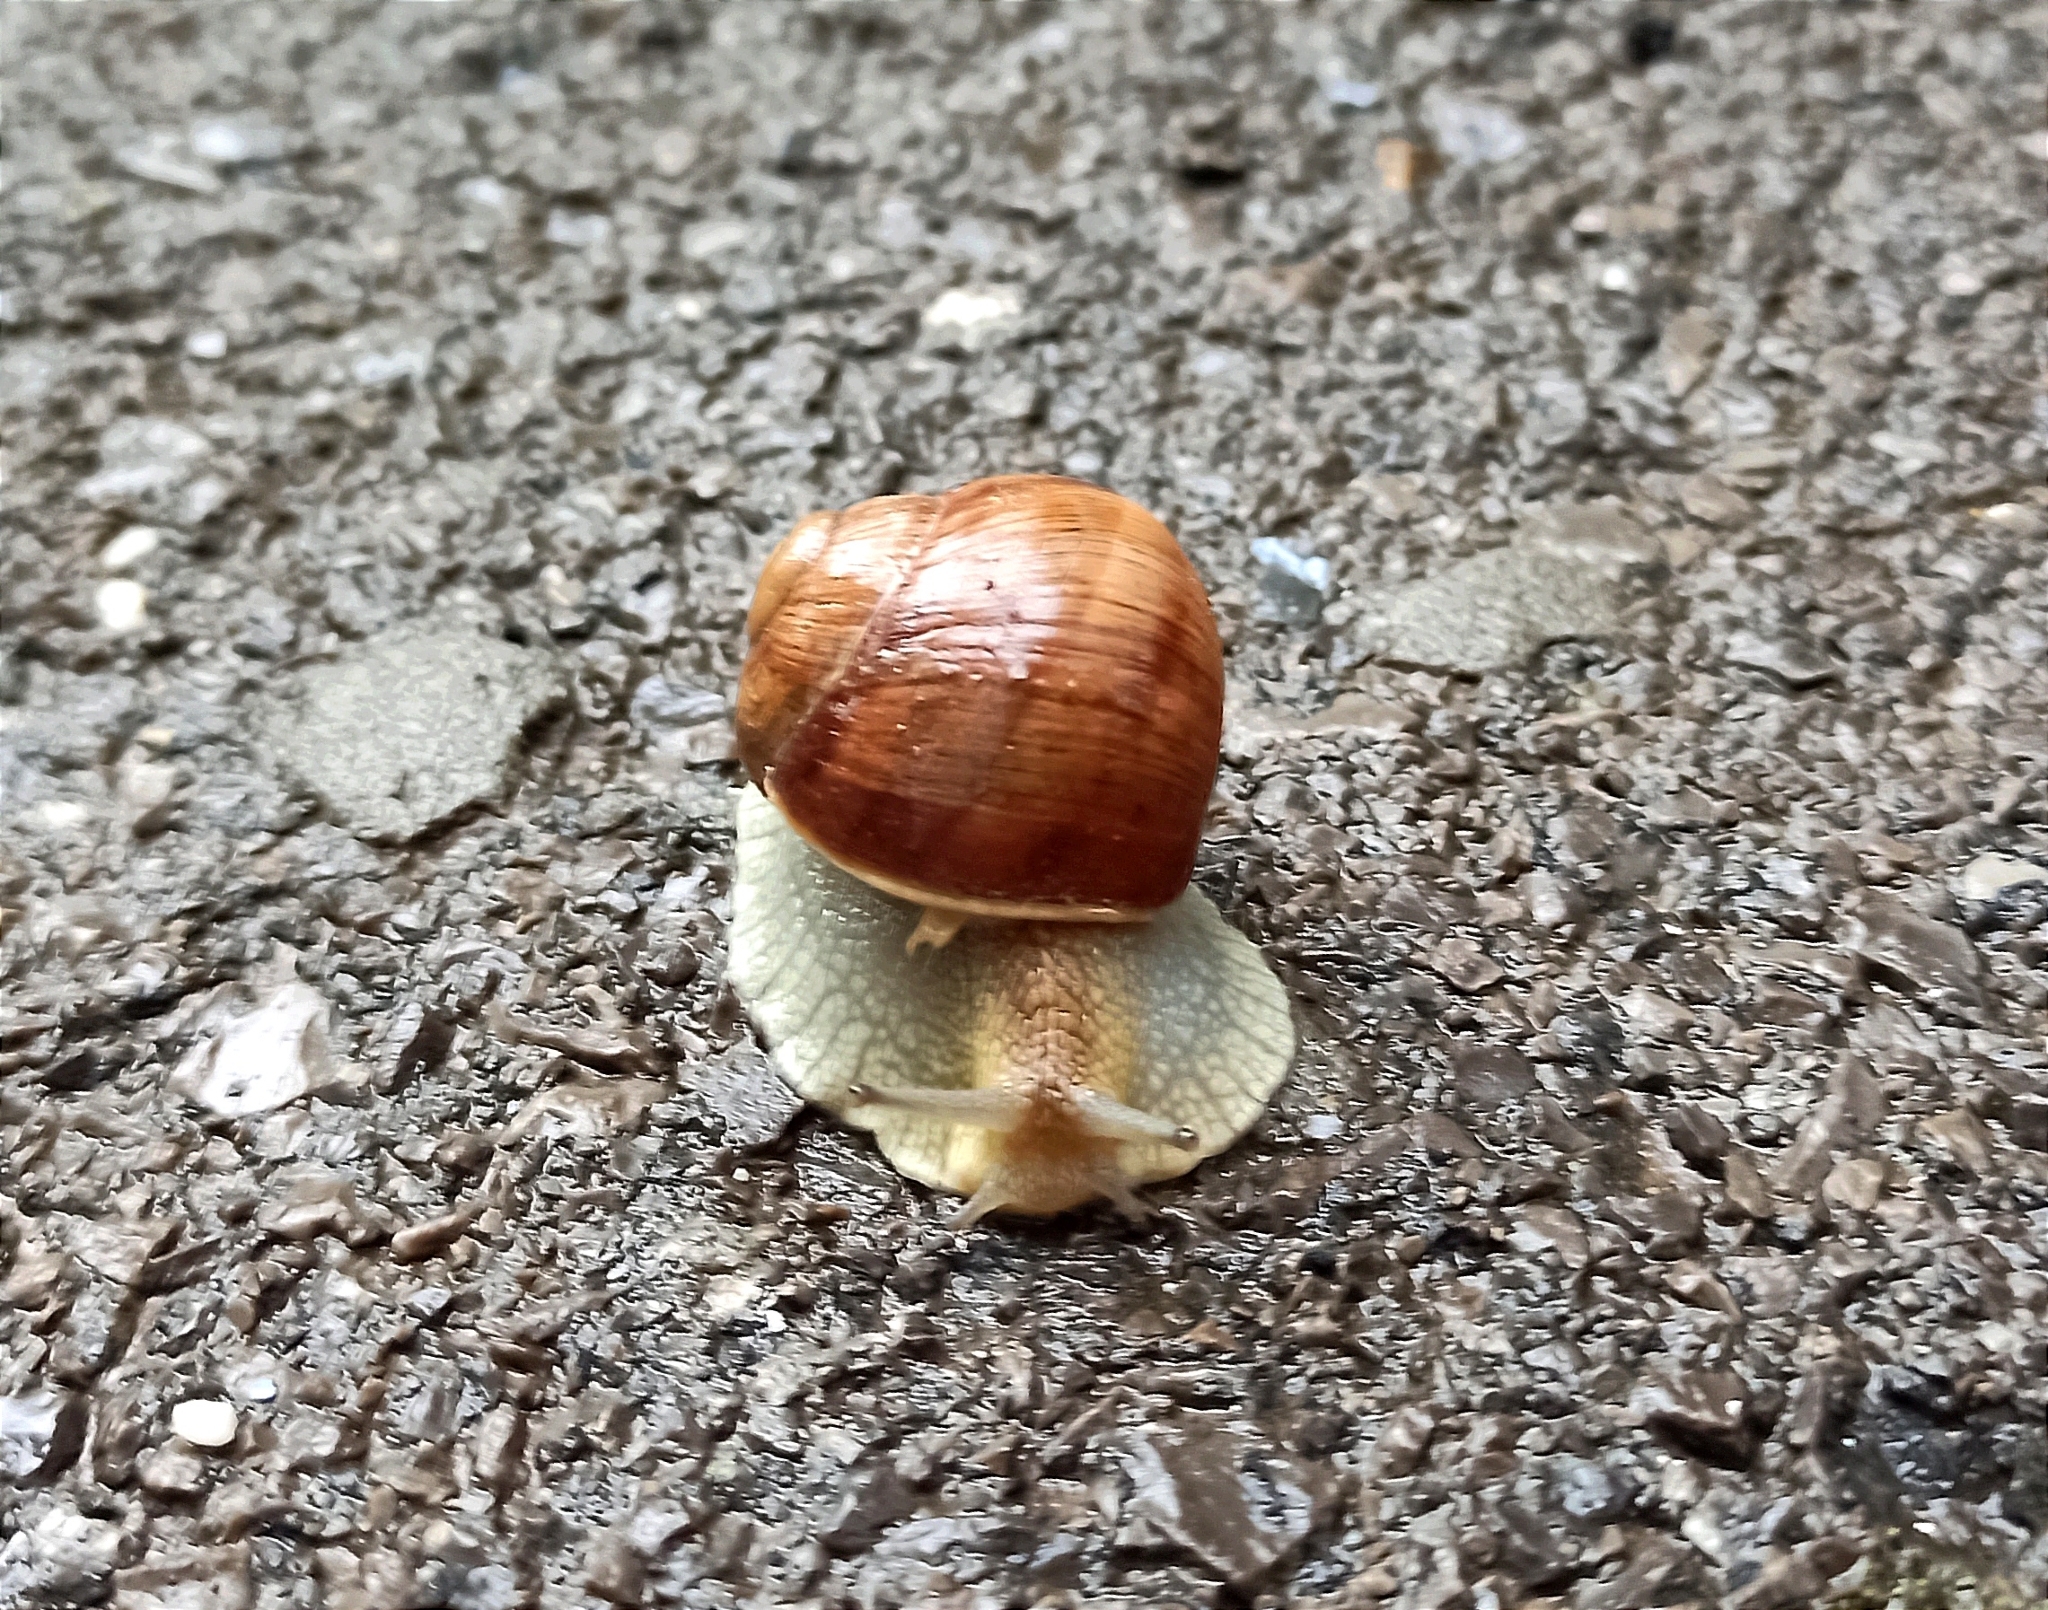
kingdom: Animalia
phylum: Mollusca
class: Gastropoda
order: Stylommatophora
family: Helicidae
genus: Helix
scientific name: Helix albescens
